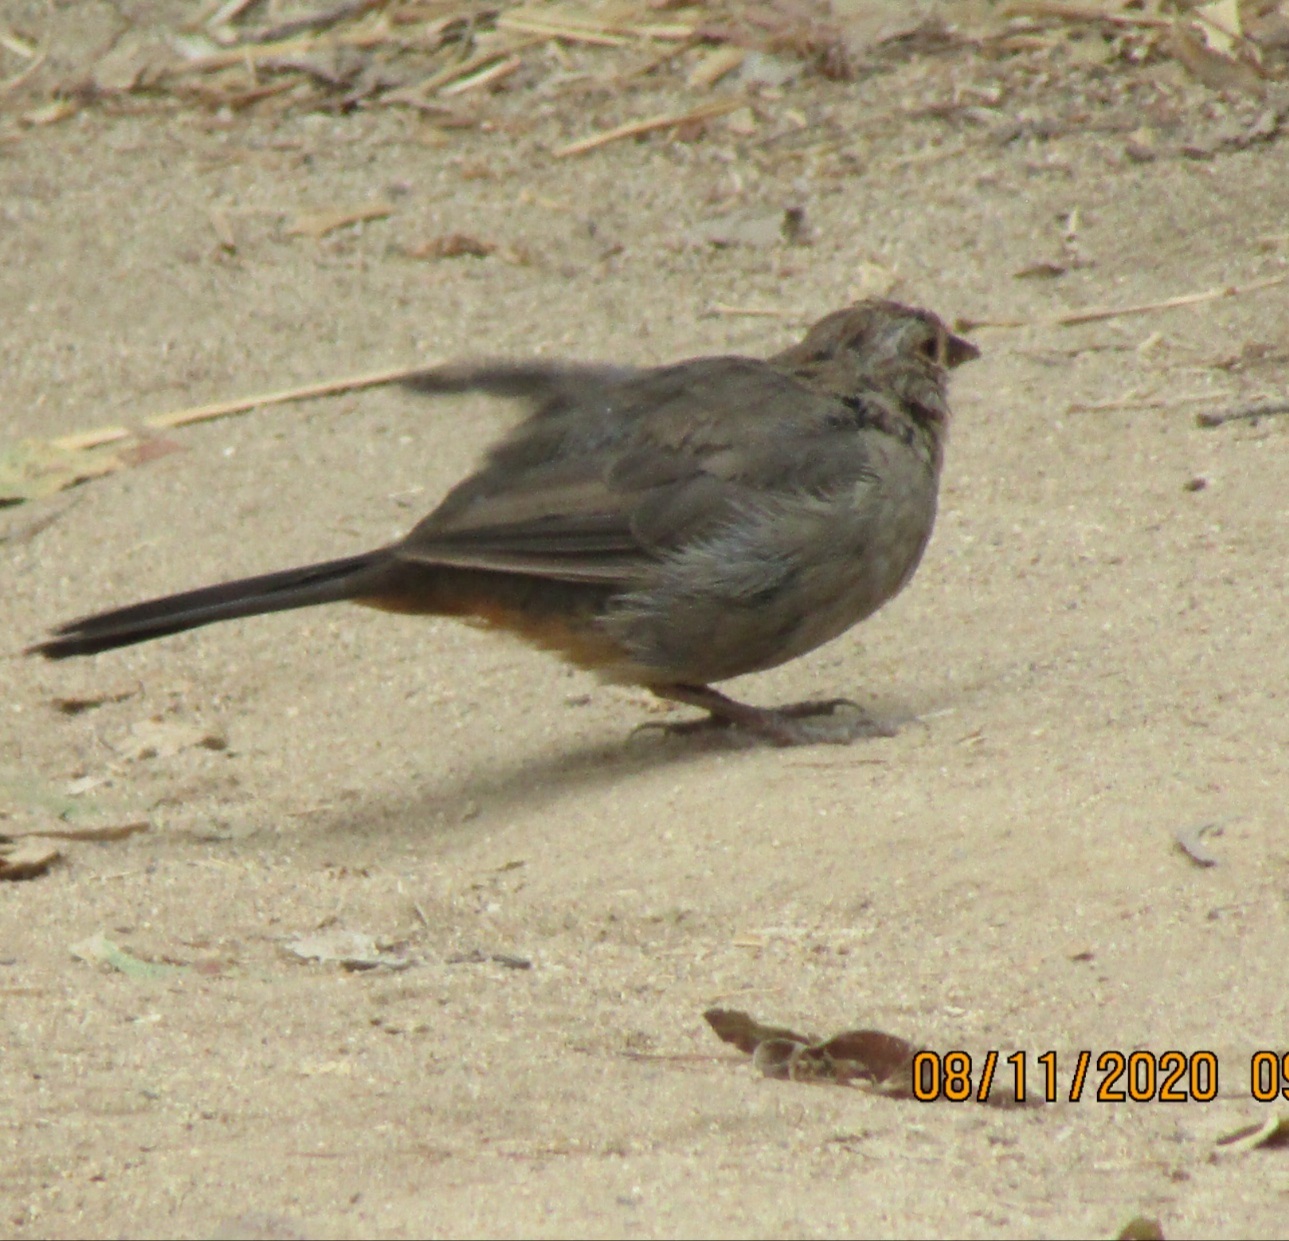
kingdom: Animalia
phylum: Chordata
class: Aves
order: Passeriformes
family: Passerellidae
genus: Melozone
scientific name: Melozone crissalis
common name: California towhee
